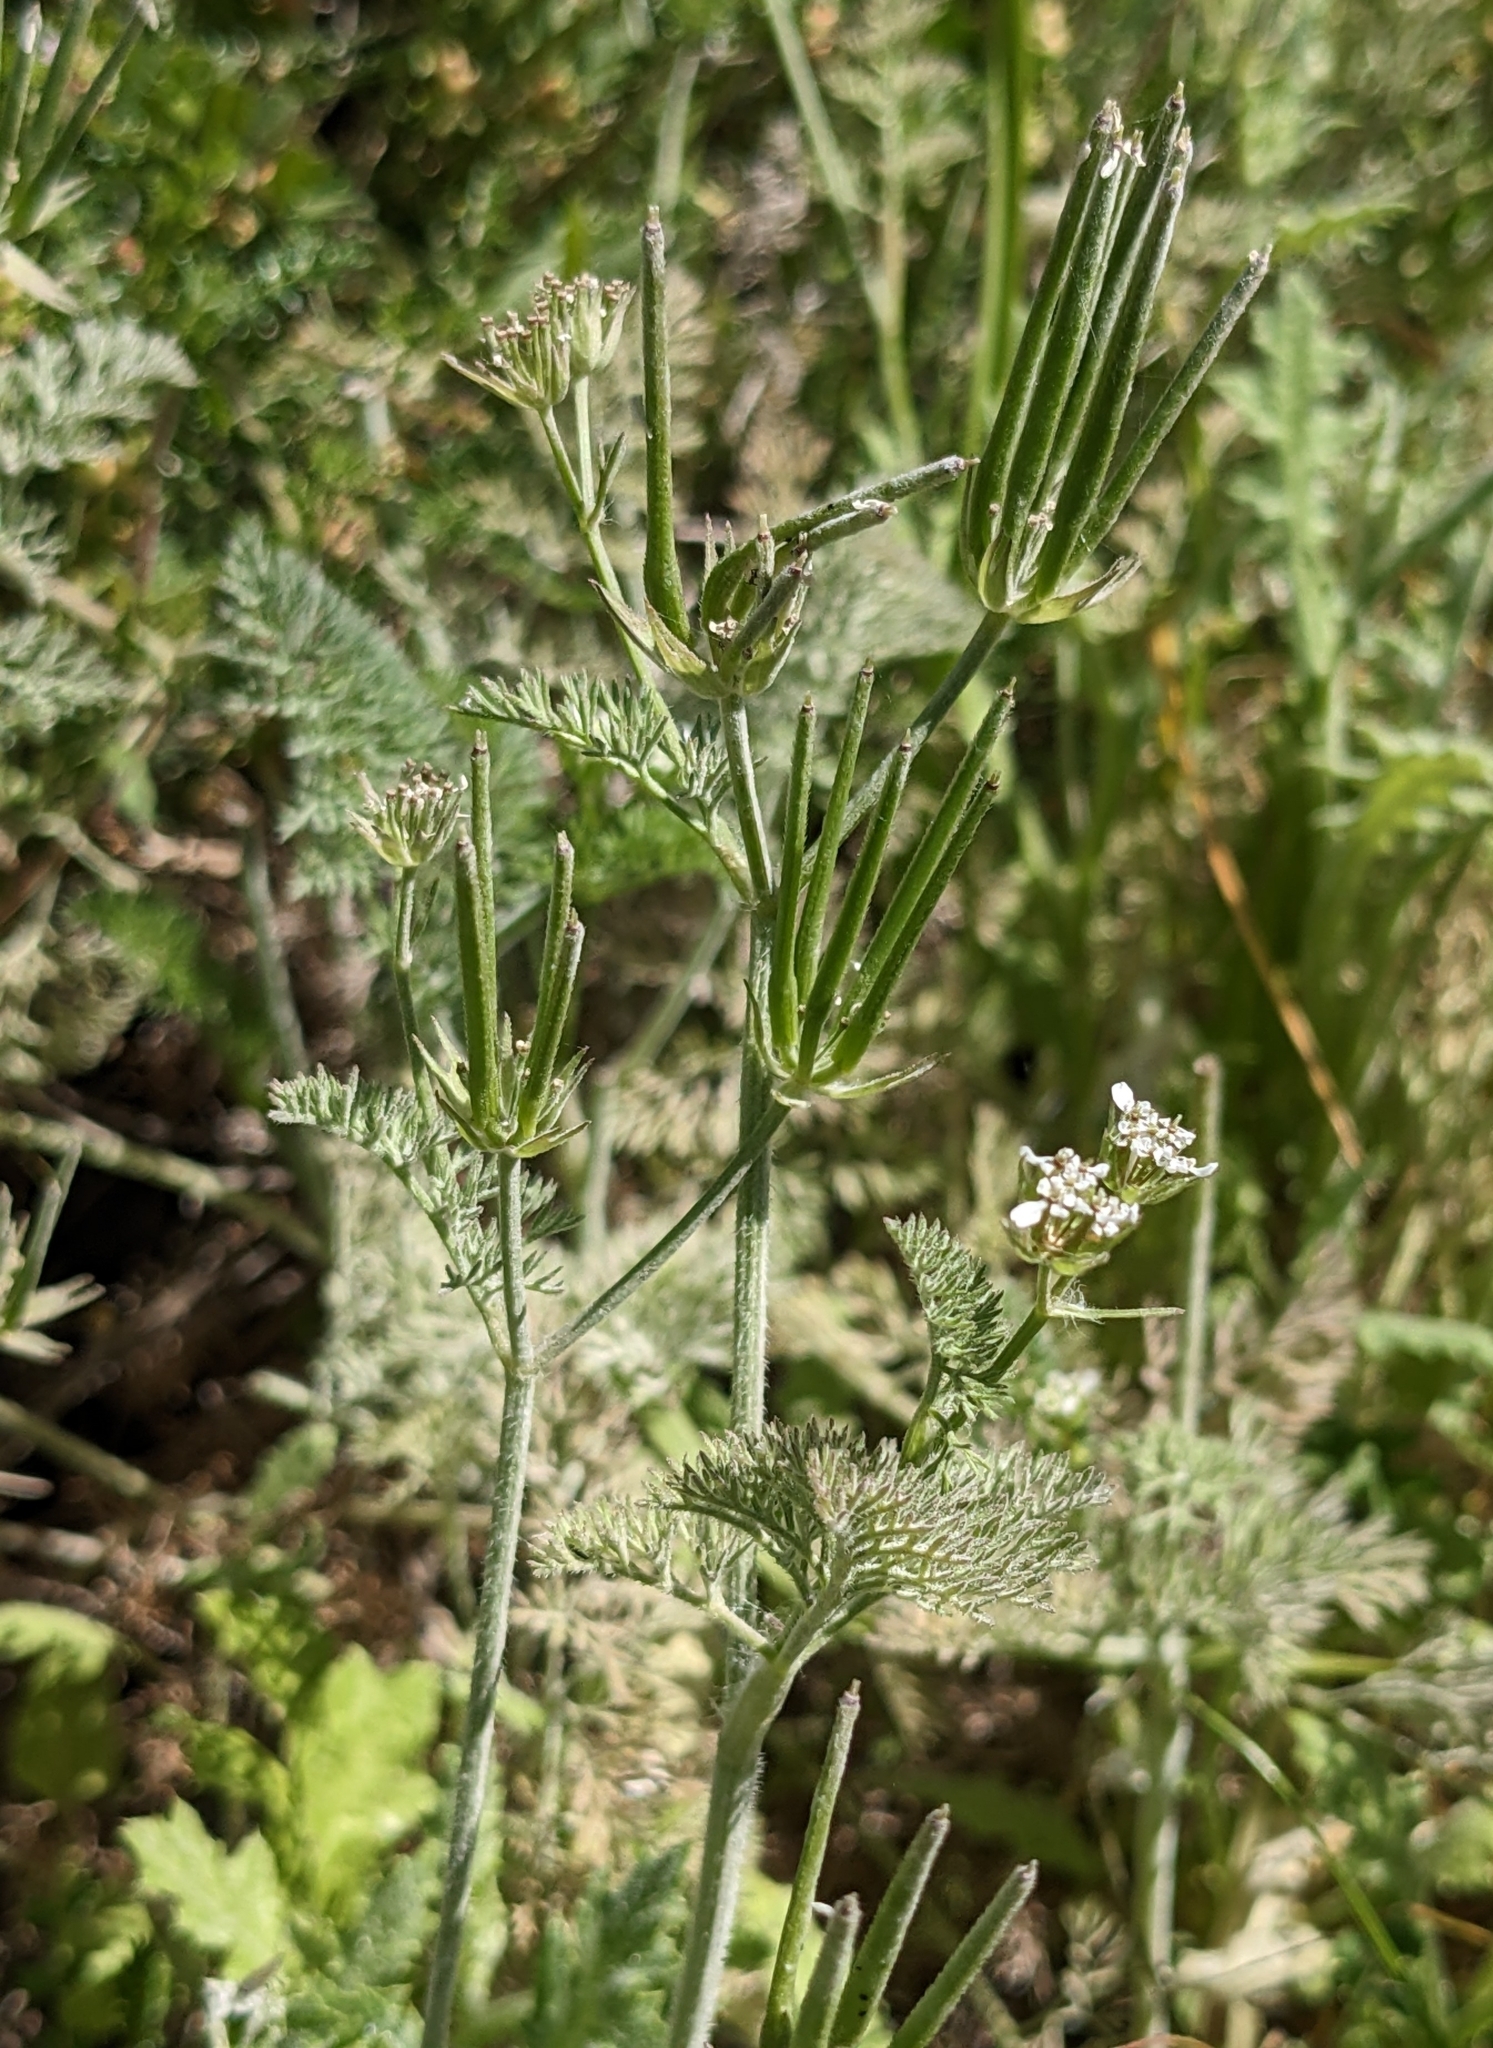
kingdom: Plantae
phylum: Tracheophyta
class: Magnoliopsida
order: Apiales
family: Apiaceae
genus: Scandix
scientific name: Scandix pecten-veneris
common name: Shepherd's-needle
